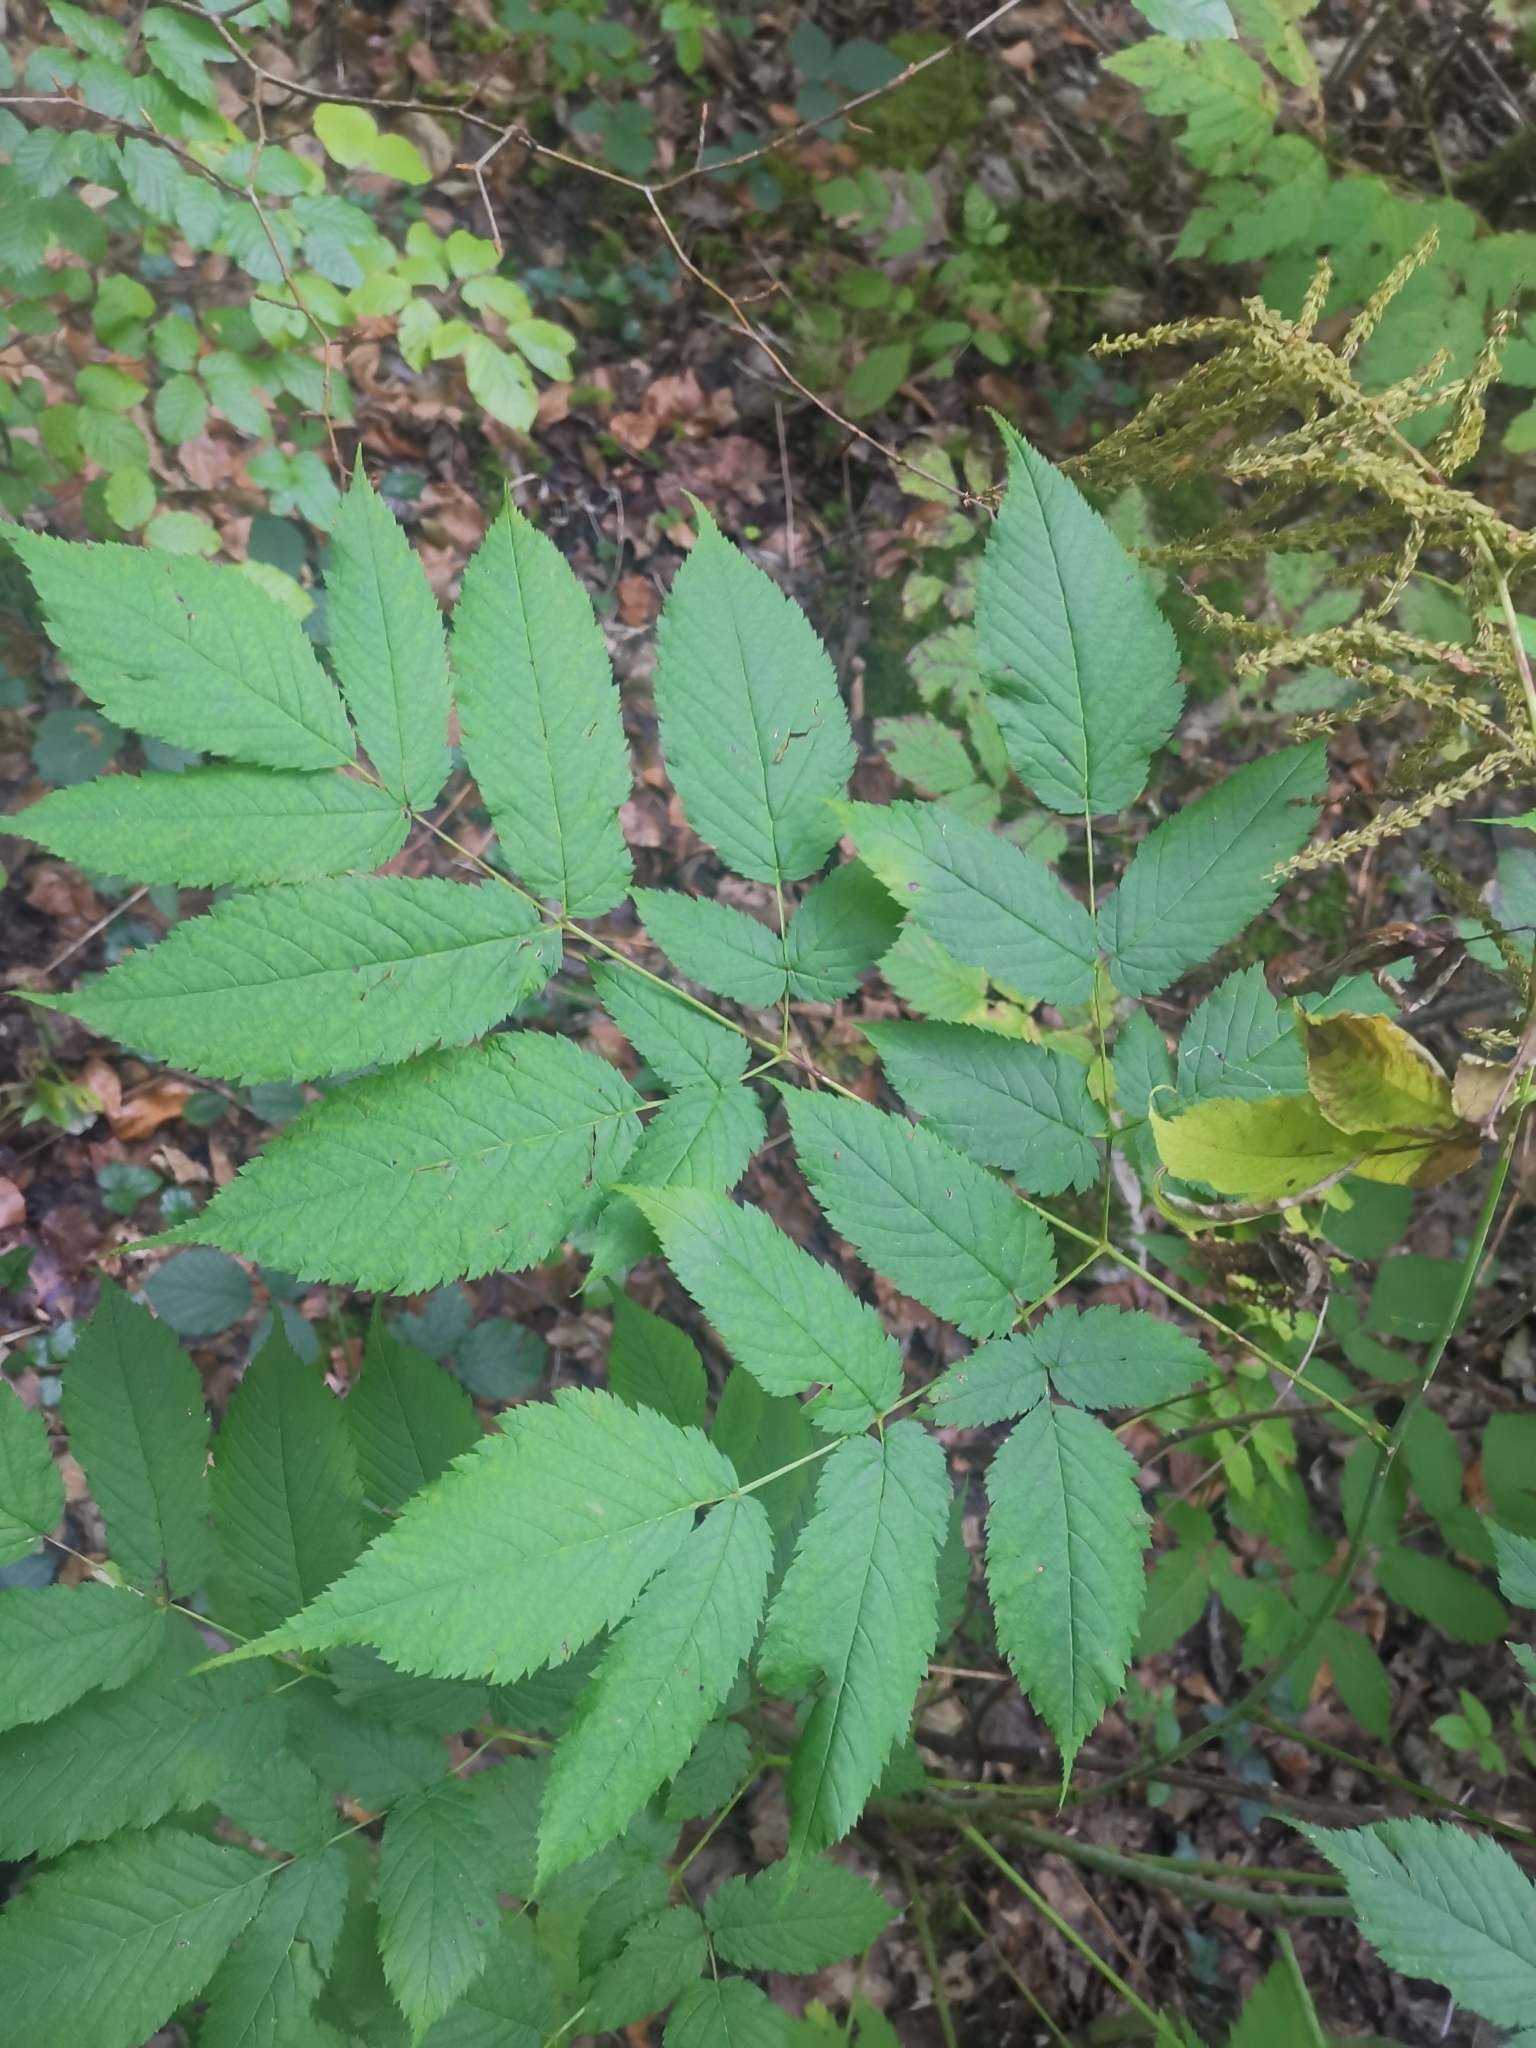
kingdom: Plantae
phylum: Tracheophyta
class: Magnoliopsida
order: Rosales
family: Rosaceae
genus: Aruncus
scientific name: Aruncus dioicus
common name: Buck's-beard
